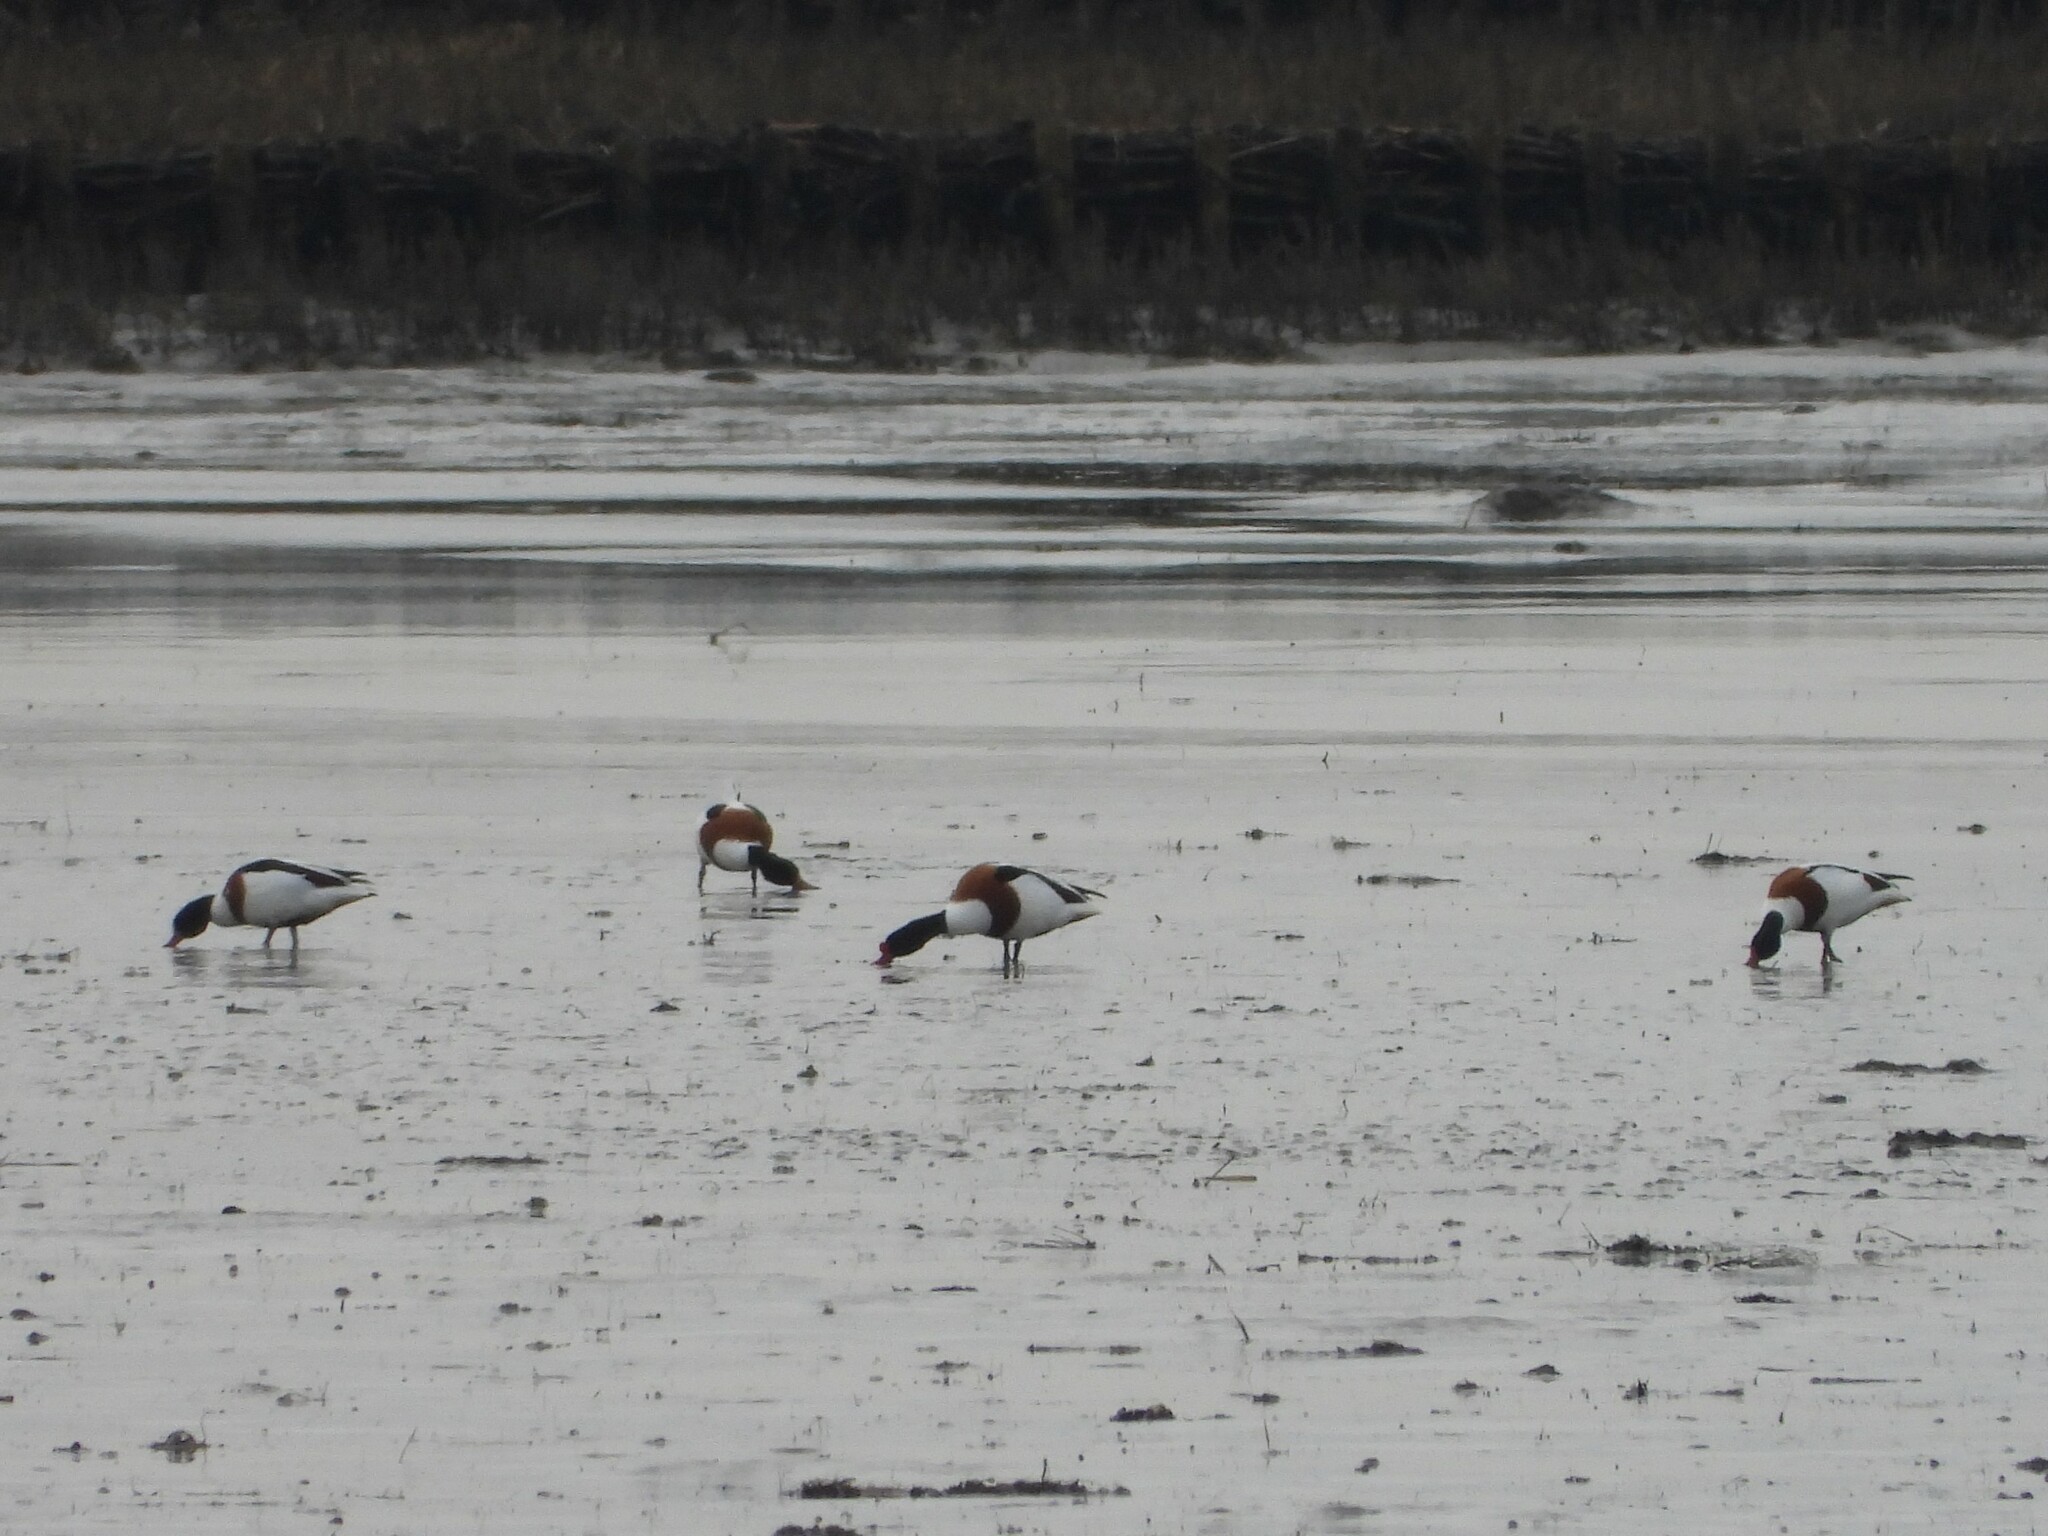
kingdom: Animalia
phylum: Chordata
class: Aves
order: Anseriformes
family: Anatidae
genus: Tadorna
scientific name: Tadorna tadorna
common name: Common shelduck
